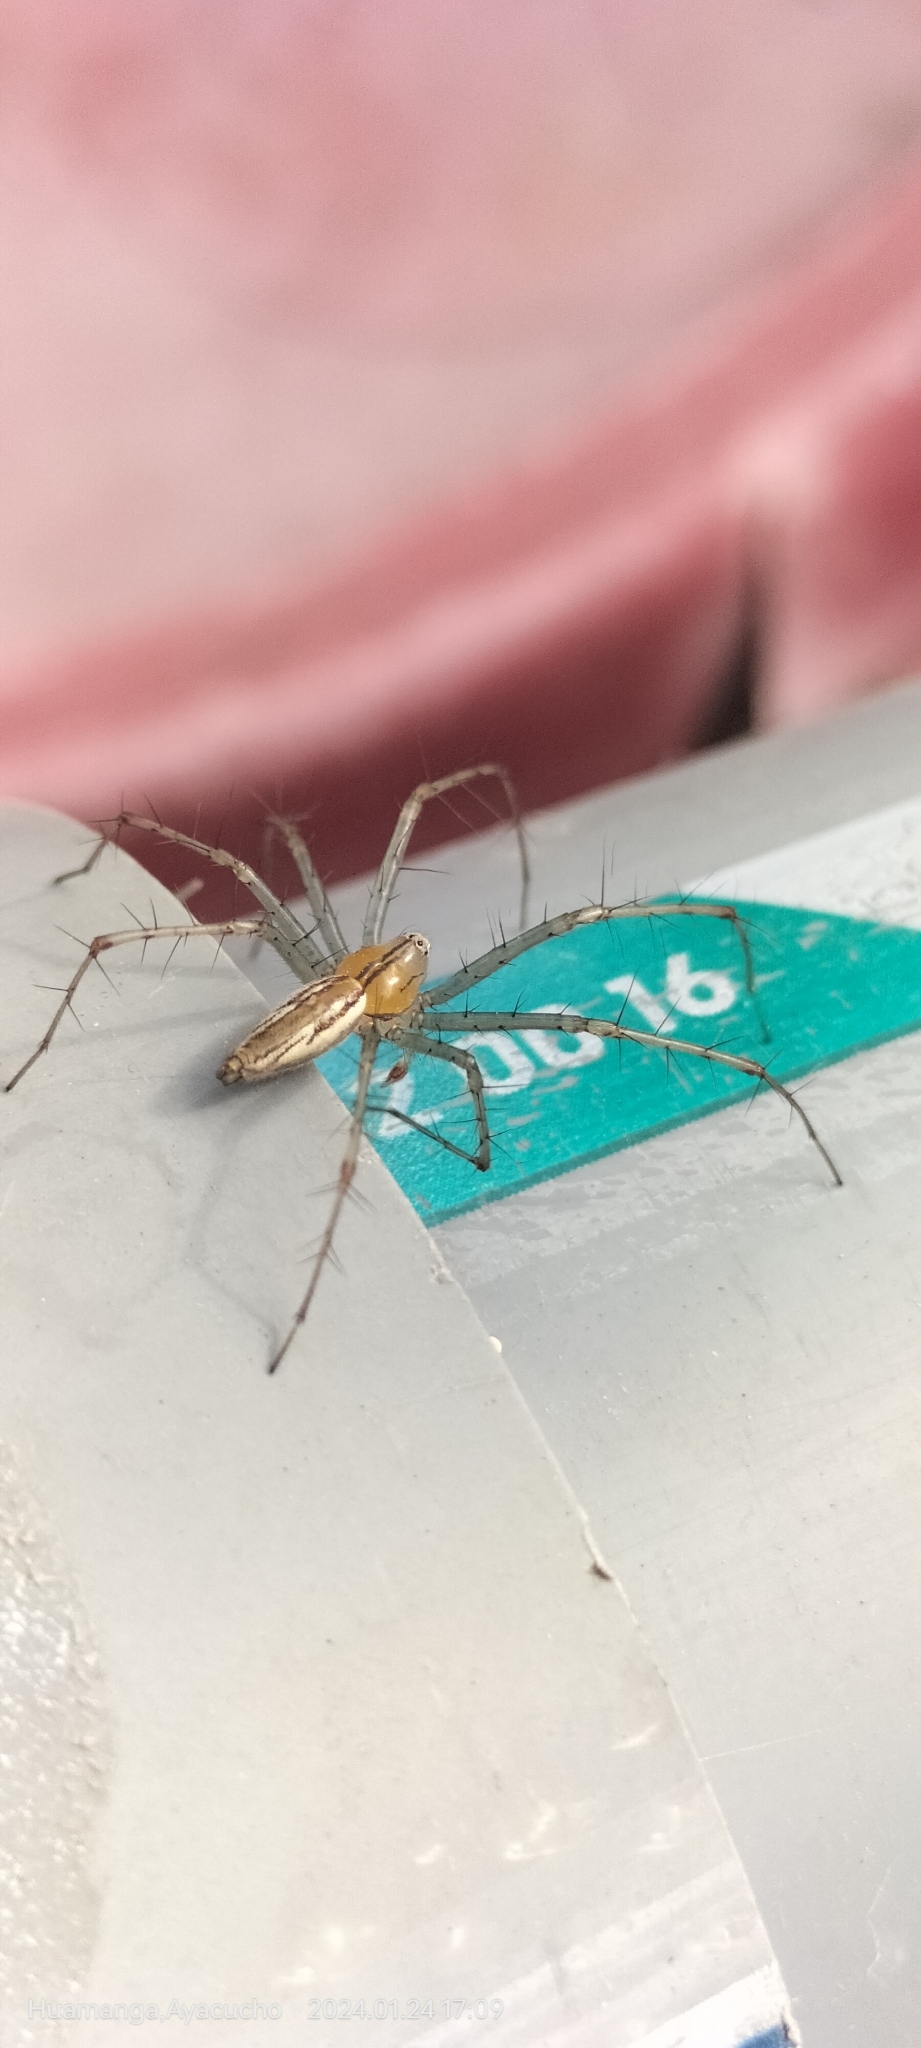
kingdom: Animalia
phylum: Arthropoda
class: Arachnida
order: Araneae
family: Oxyopidae
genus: Peucetia
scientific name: Peucetia rubrolineata
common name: Lynx spiders
